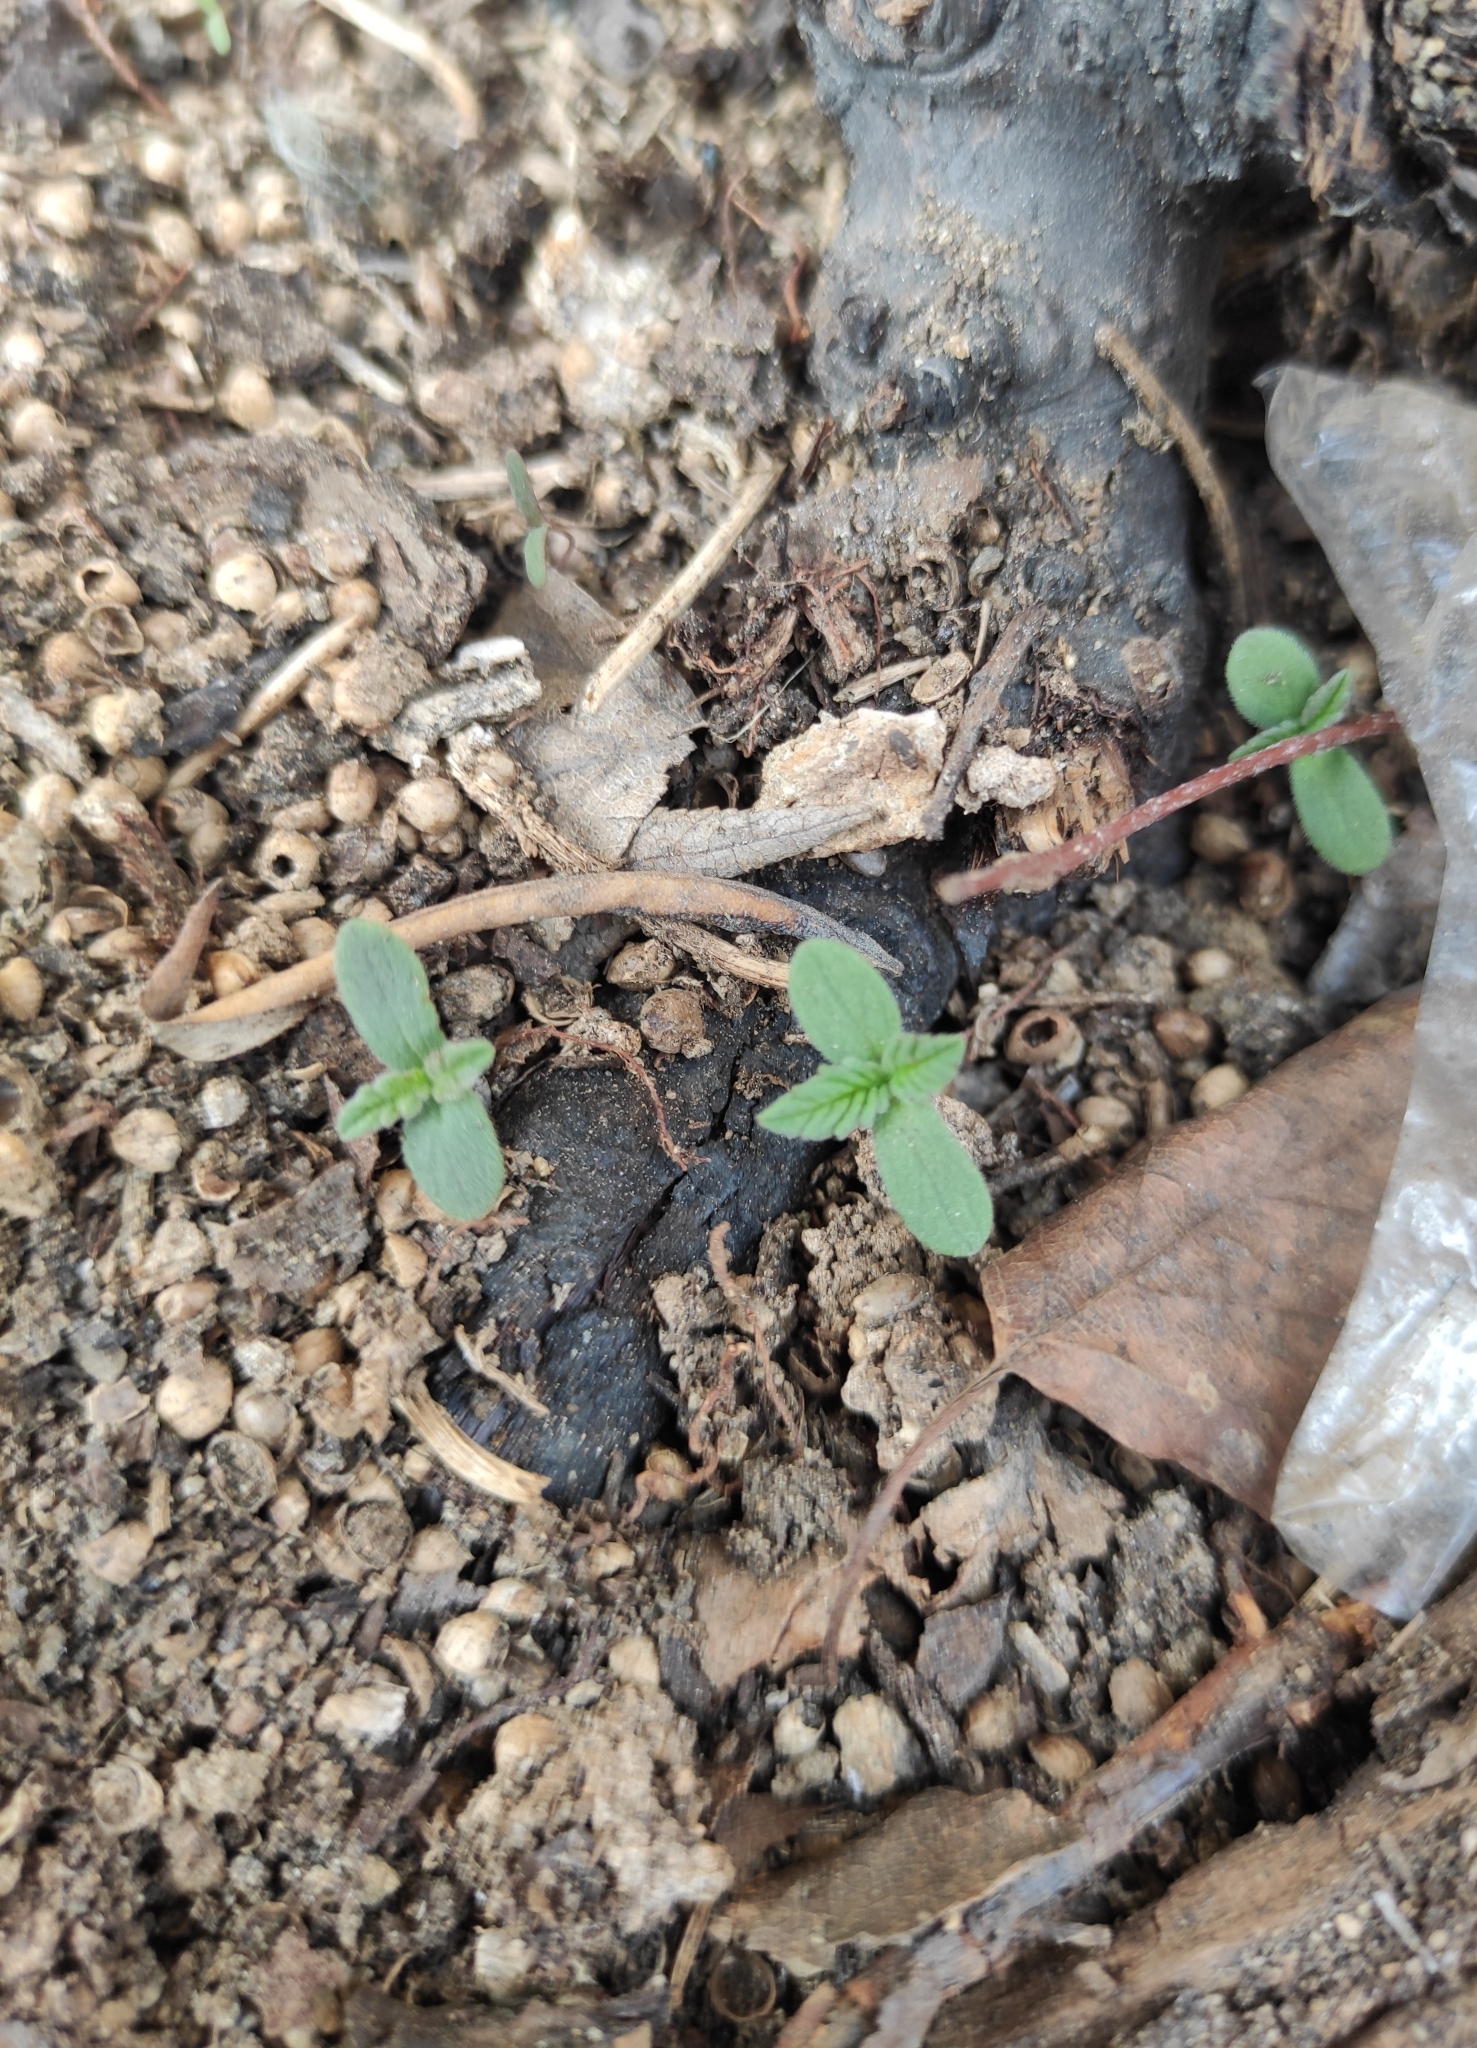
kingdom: Plantae
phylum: Tracheophyta
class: Magnoliopsida
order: Lamiales
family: Lamiaceae
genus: Galeopsis
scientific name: Galeopsis bifida
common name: Bifid hemp-nettle
